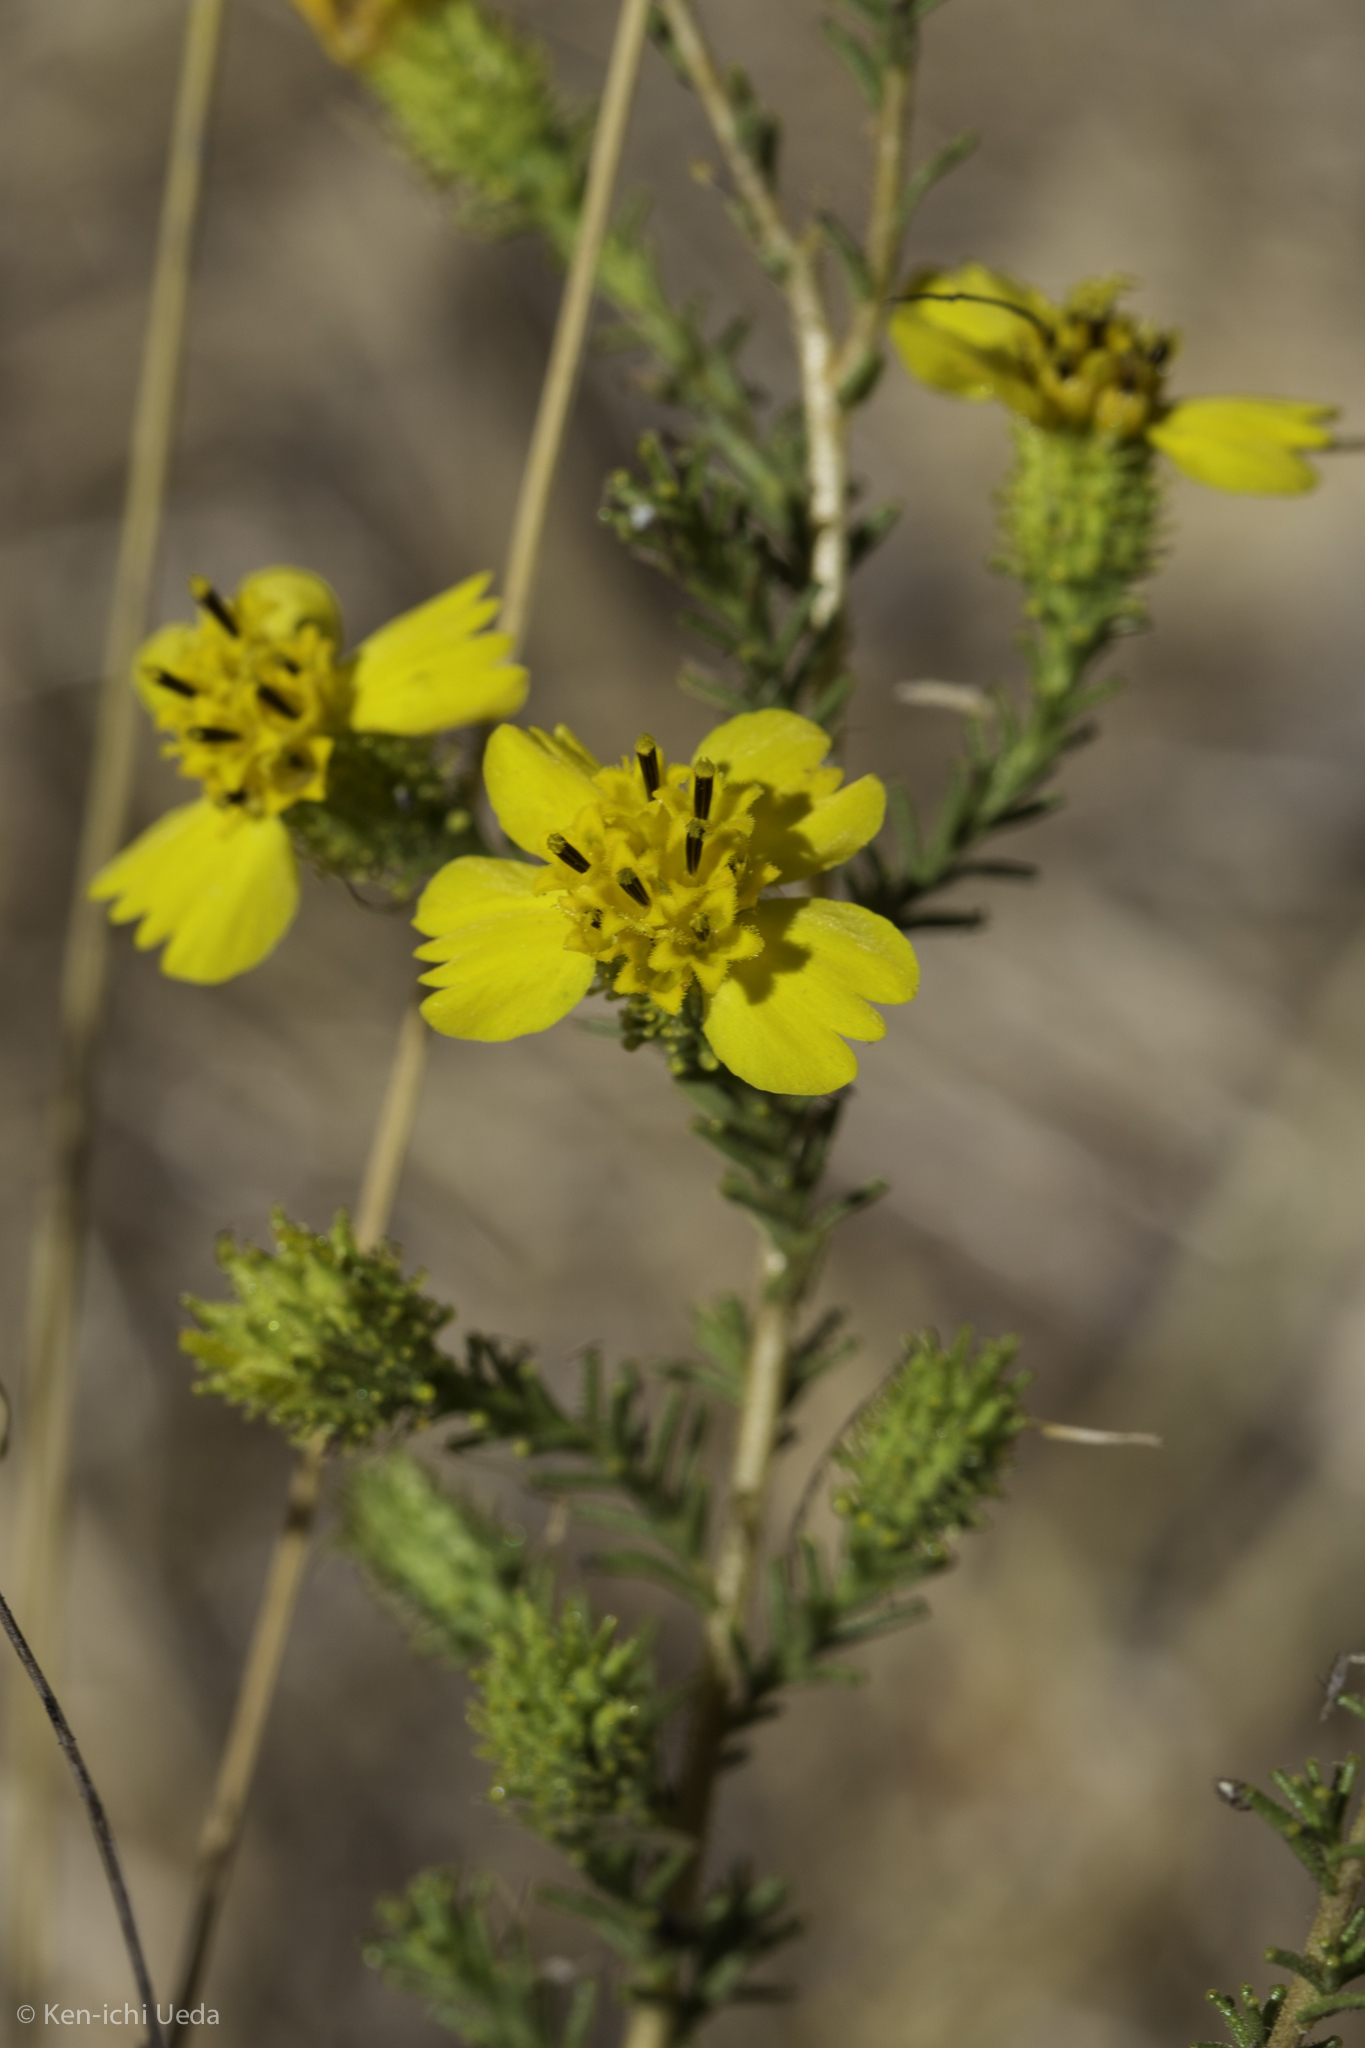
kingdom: Plantae
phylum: Tracheophyta
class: Magnoliopsida
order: Asterales
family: Asteraceae
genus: Holocarpha
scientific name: Holocarpha virgata
